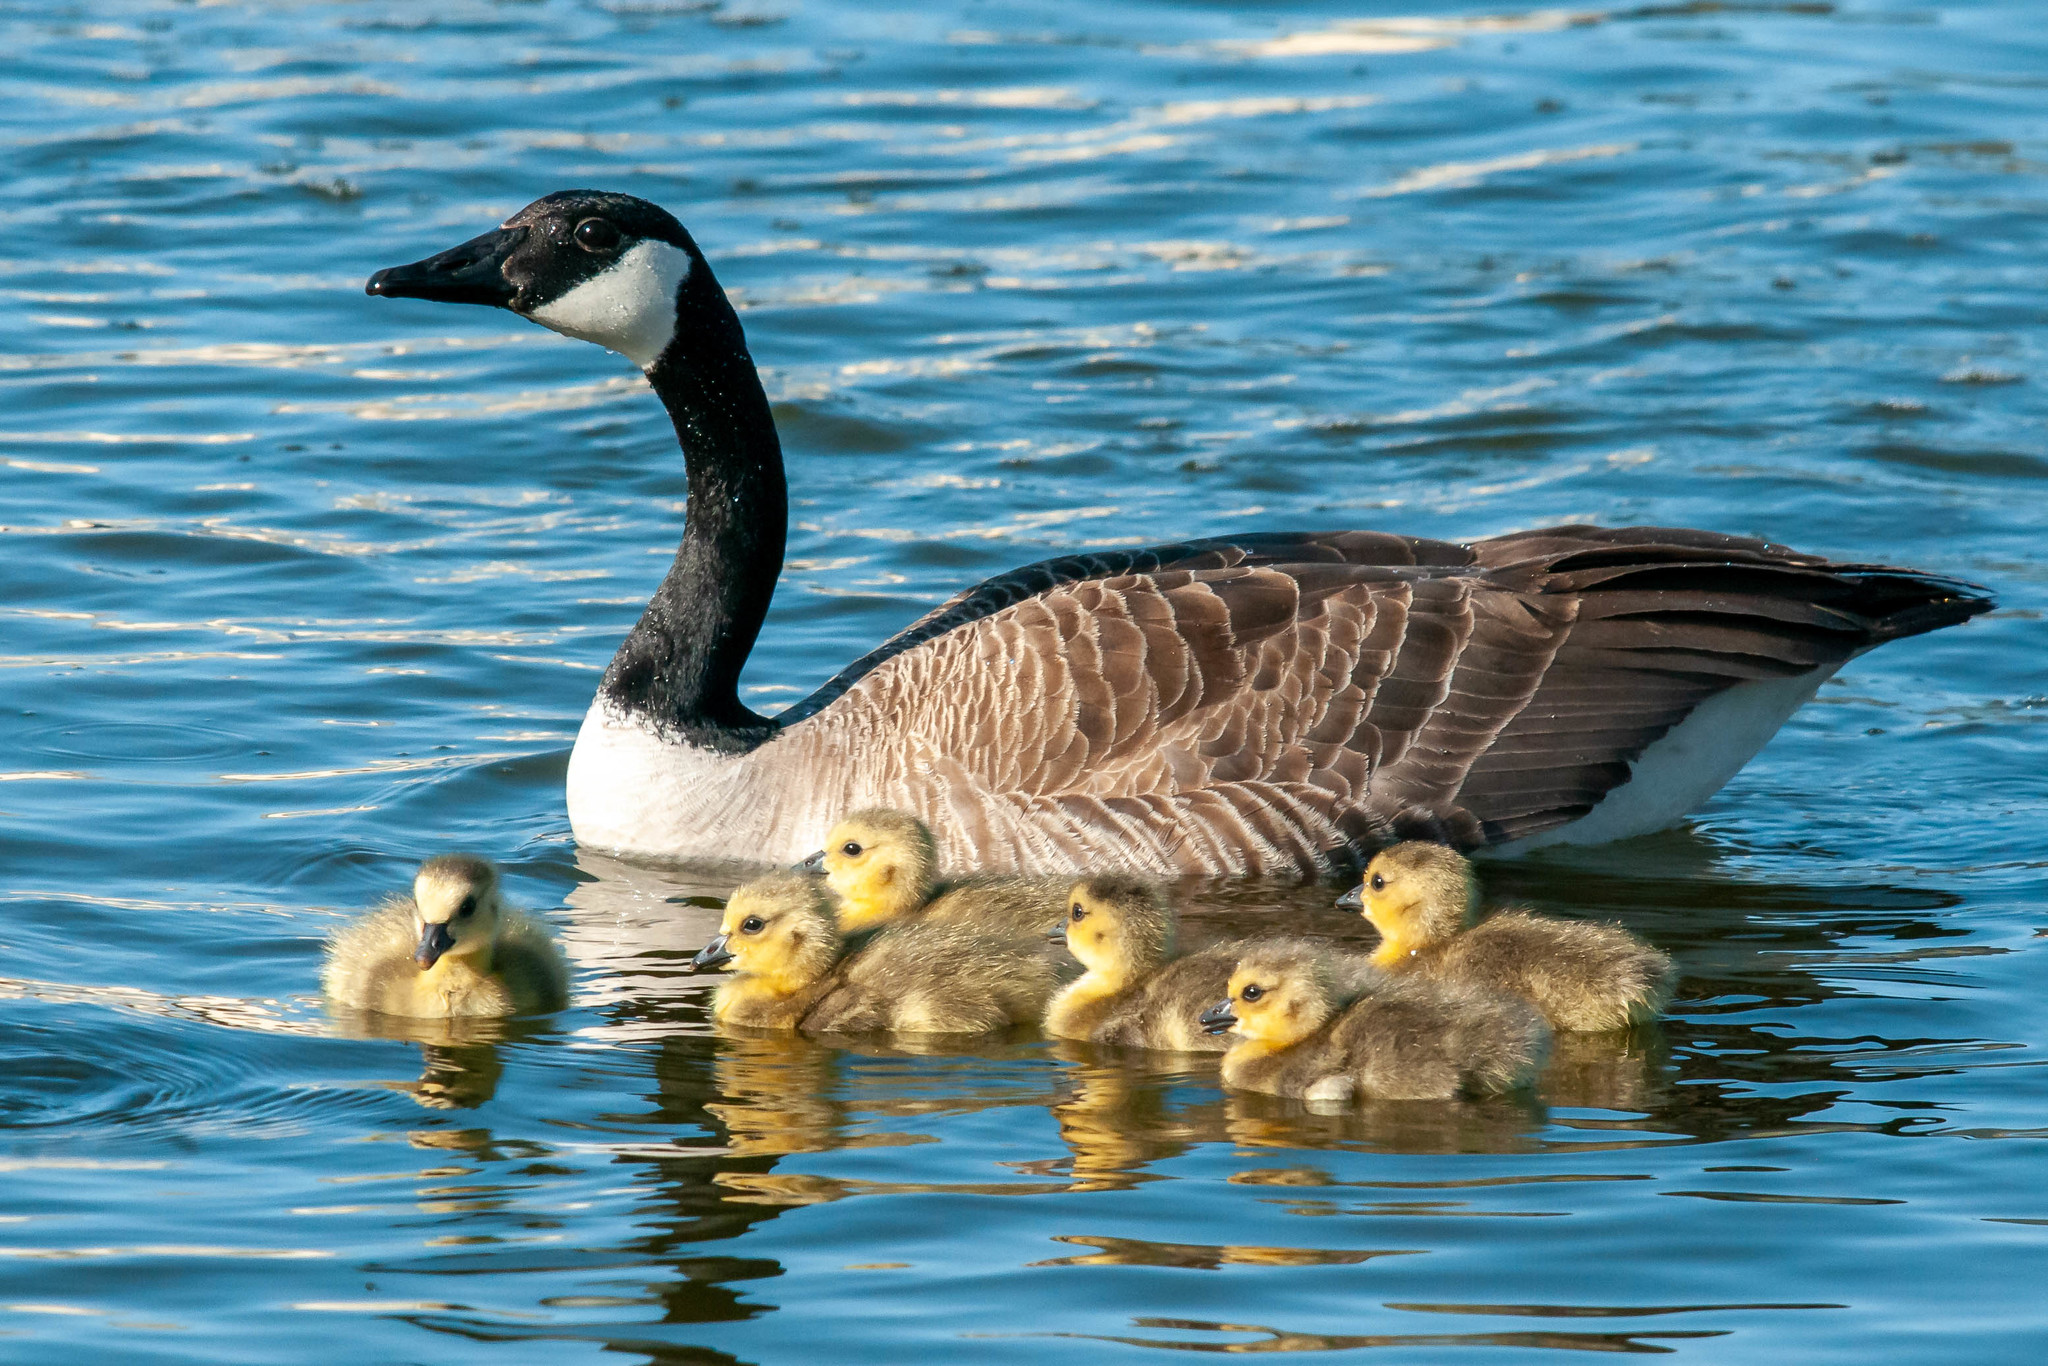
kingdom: Animalia
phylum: Chordata
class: Aves
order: Anseriformes
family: Anatidae
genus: Branta
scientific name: Branta canadensis
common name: Canada goose
